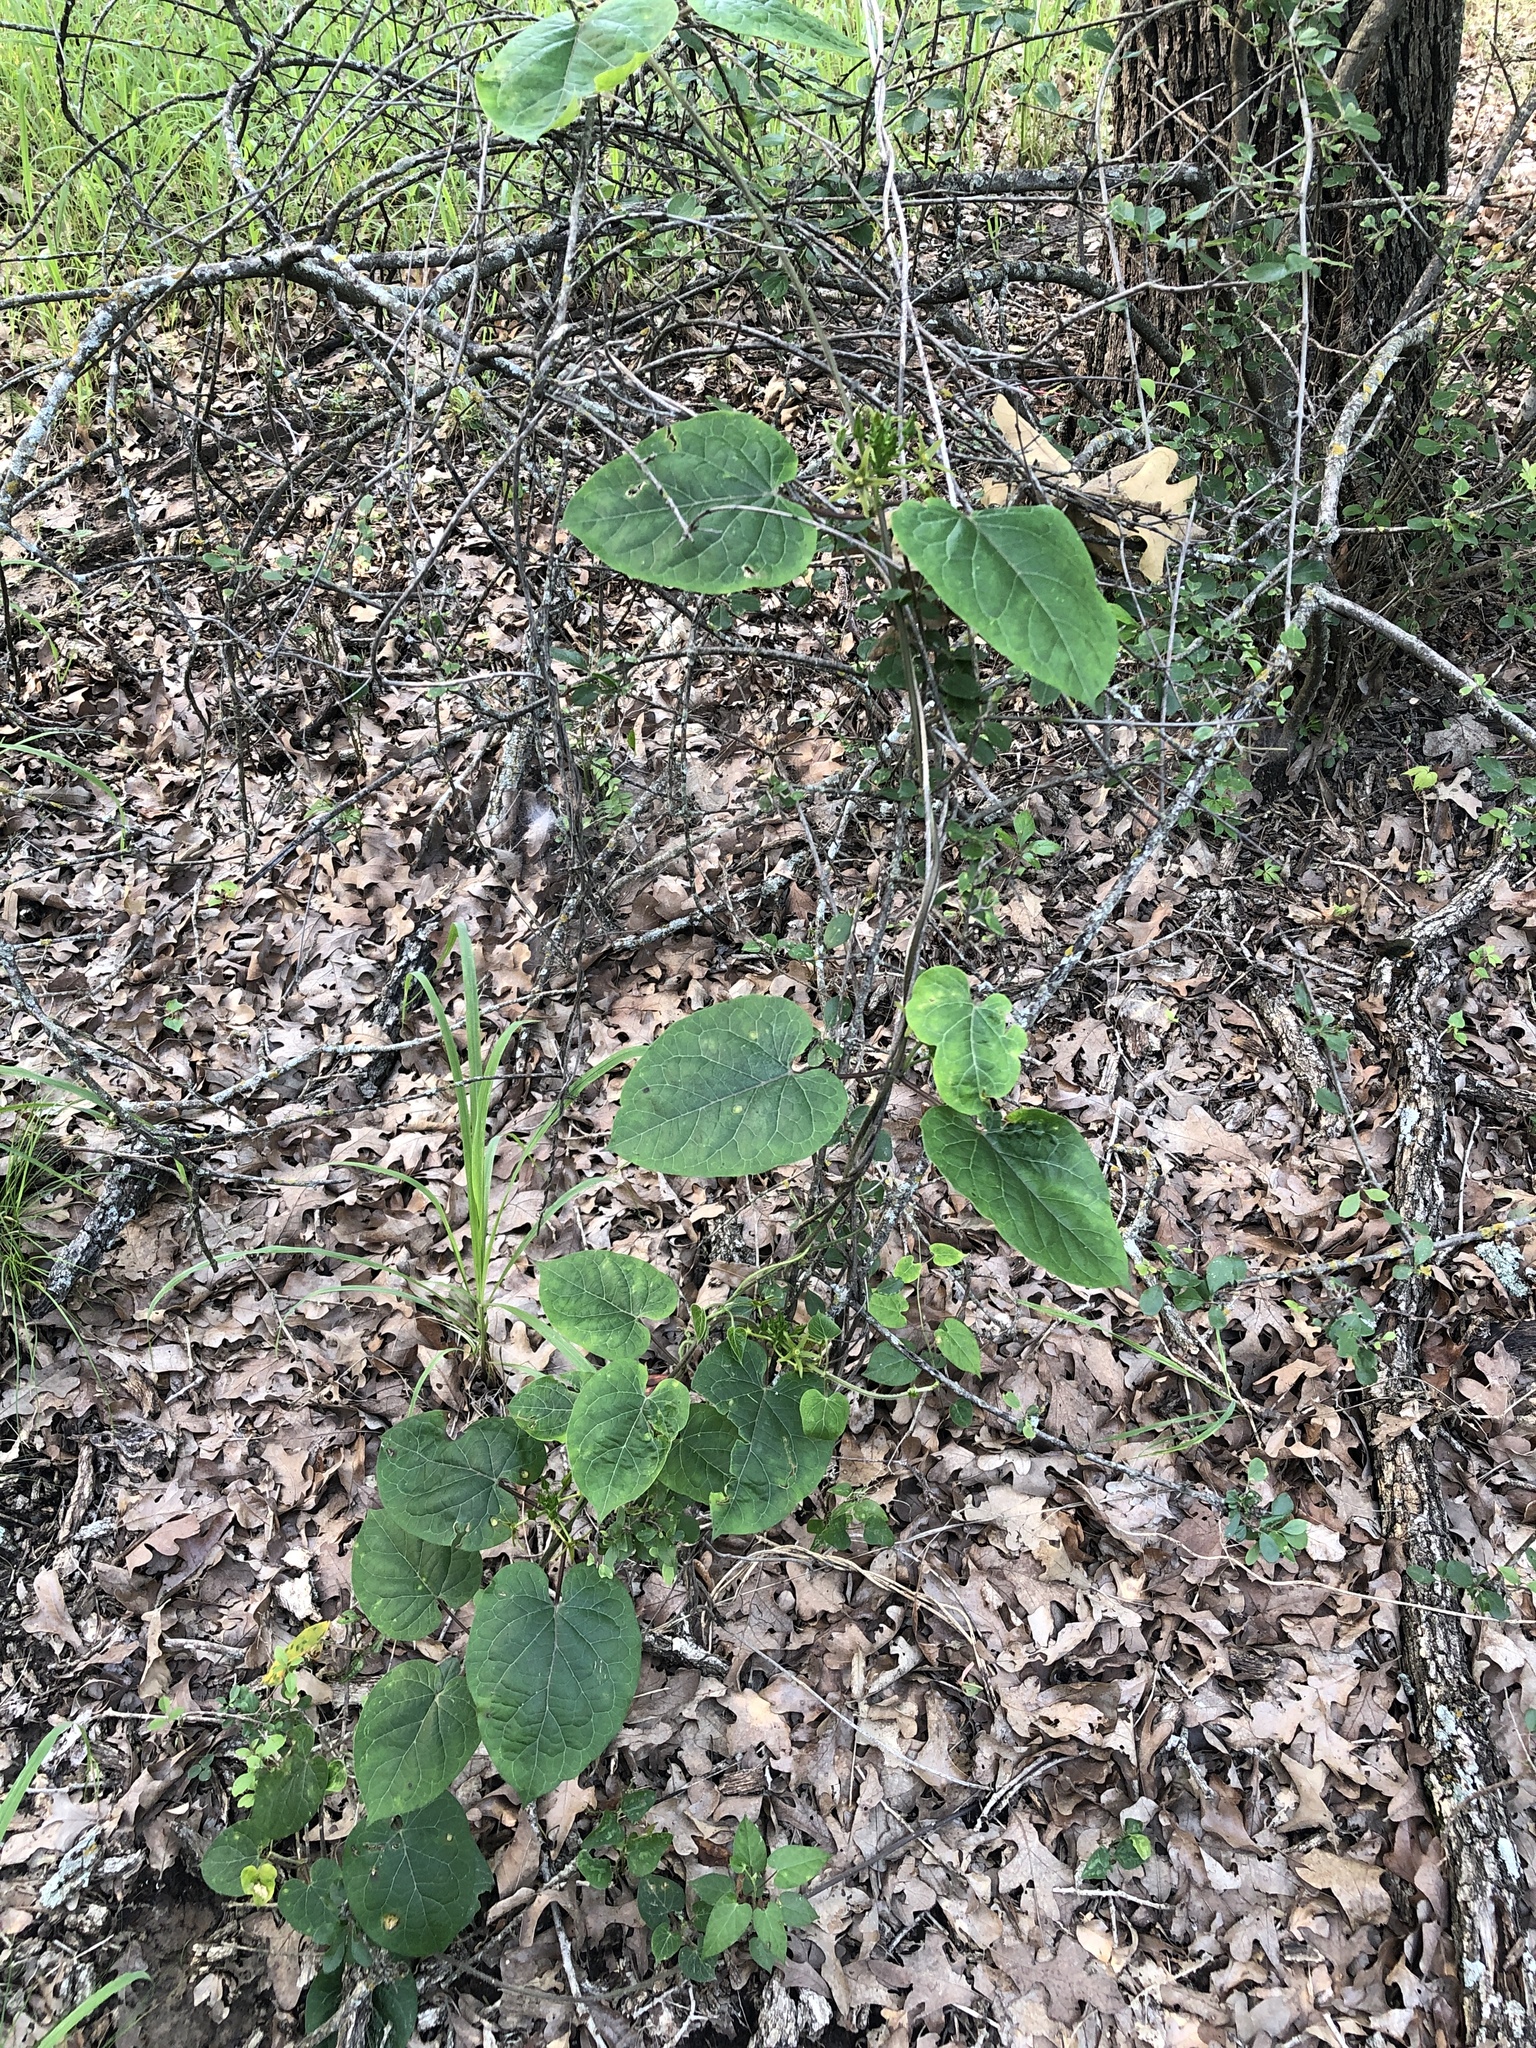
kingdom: Plantae
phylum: Tracheophyta
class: Magnoliopsida
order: Gentianales
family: Apocynaceae
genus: Gonolobus
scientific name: Gonolobus suberosus
